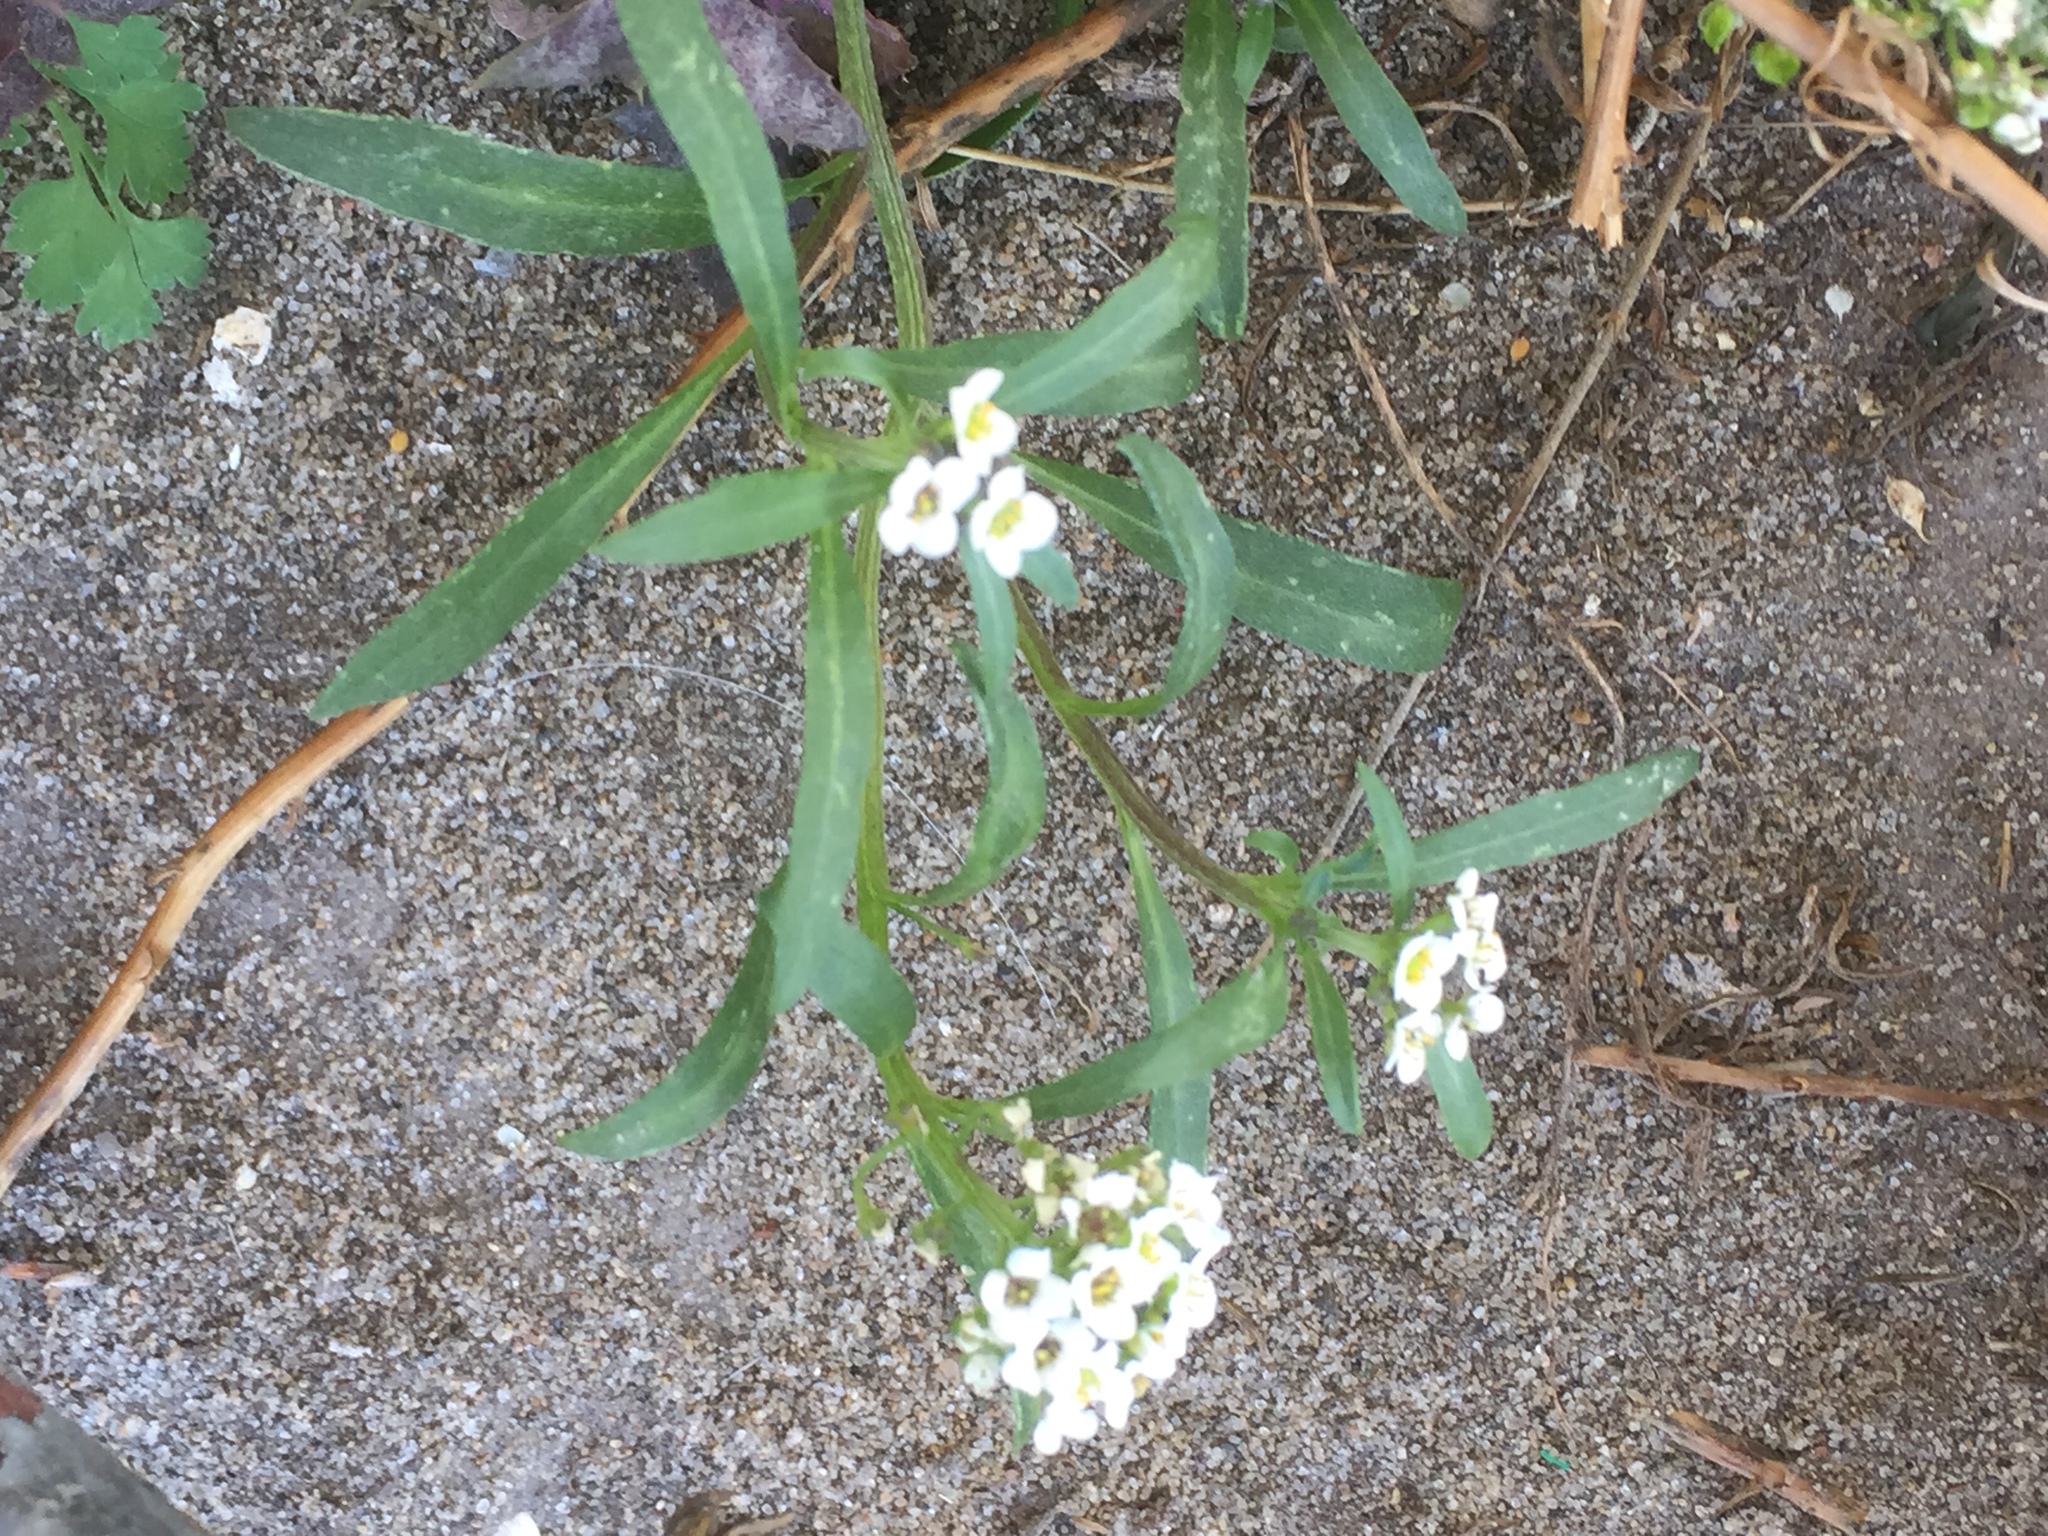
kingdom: Plantae
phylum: Tracheophyta
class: Magnoliopsida
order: Brassicales
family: Brassicaceae
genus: Lobularia
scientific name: Lobularia maritima
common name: Sweet alison
